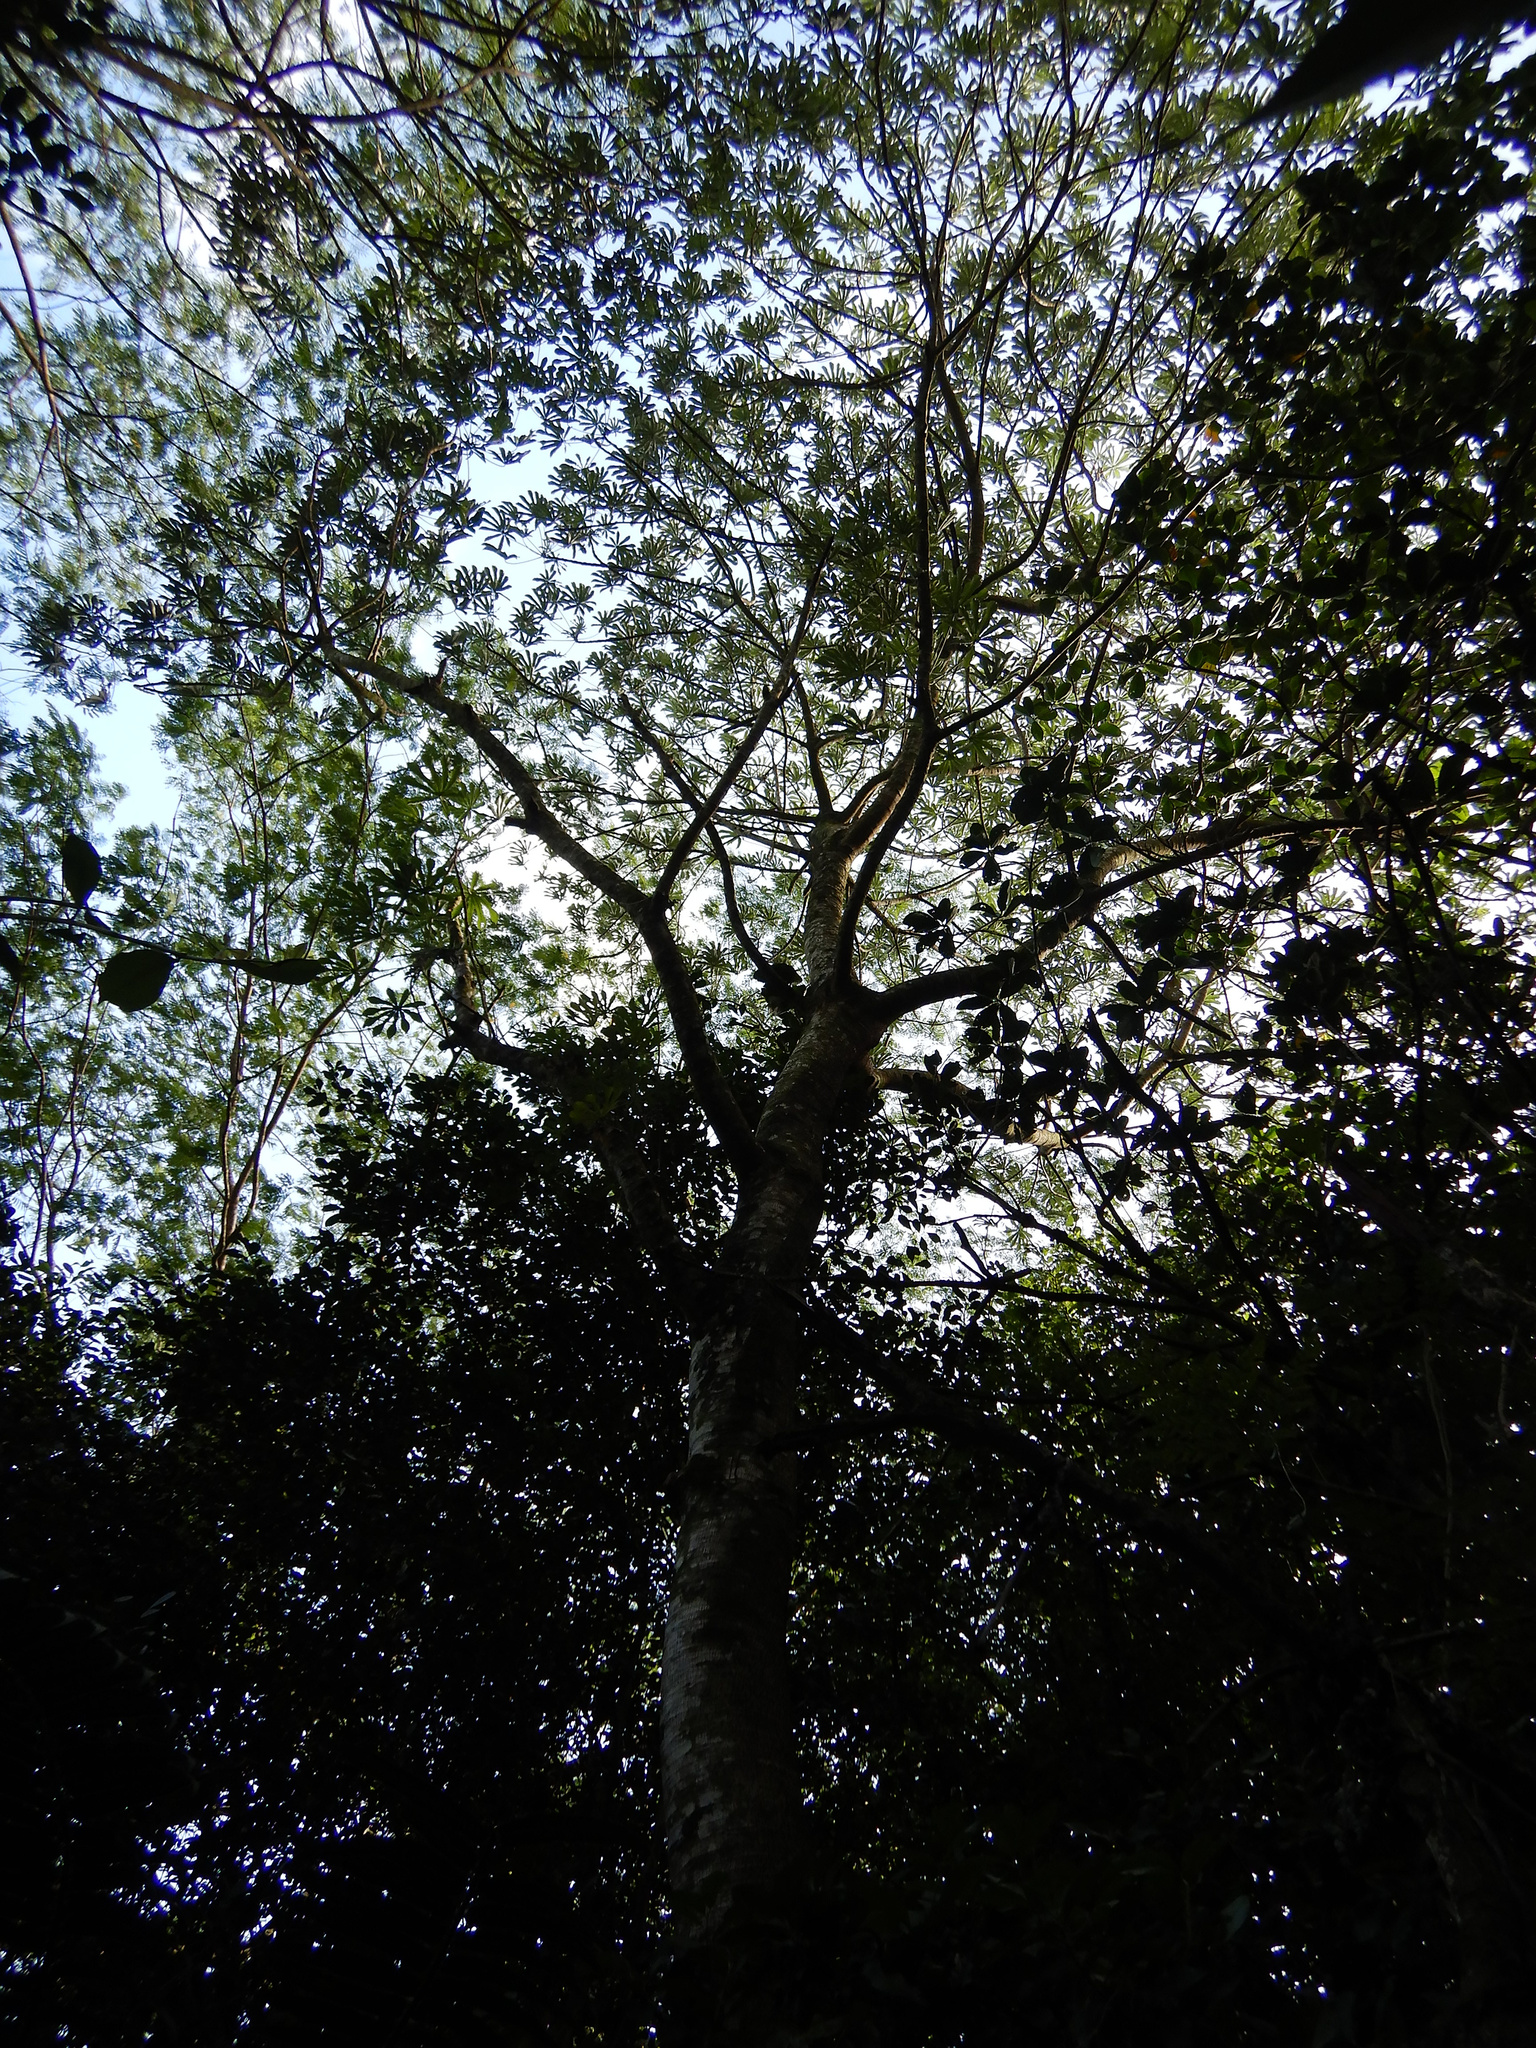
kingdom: Plantae
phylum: Tracheophyta
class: Magnoliopsida
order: Rosales
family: Urticaceae
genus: Cecropia
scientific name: Cecropia pachystachya
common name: Ambay pumpwood
